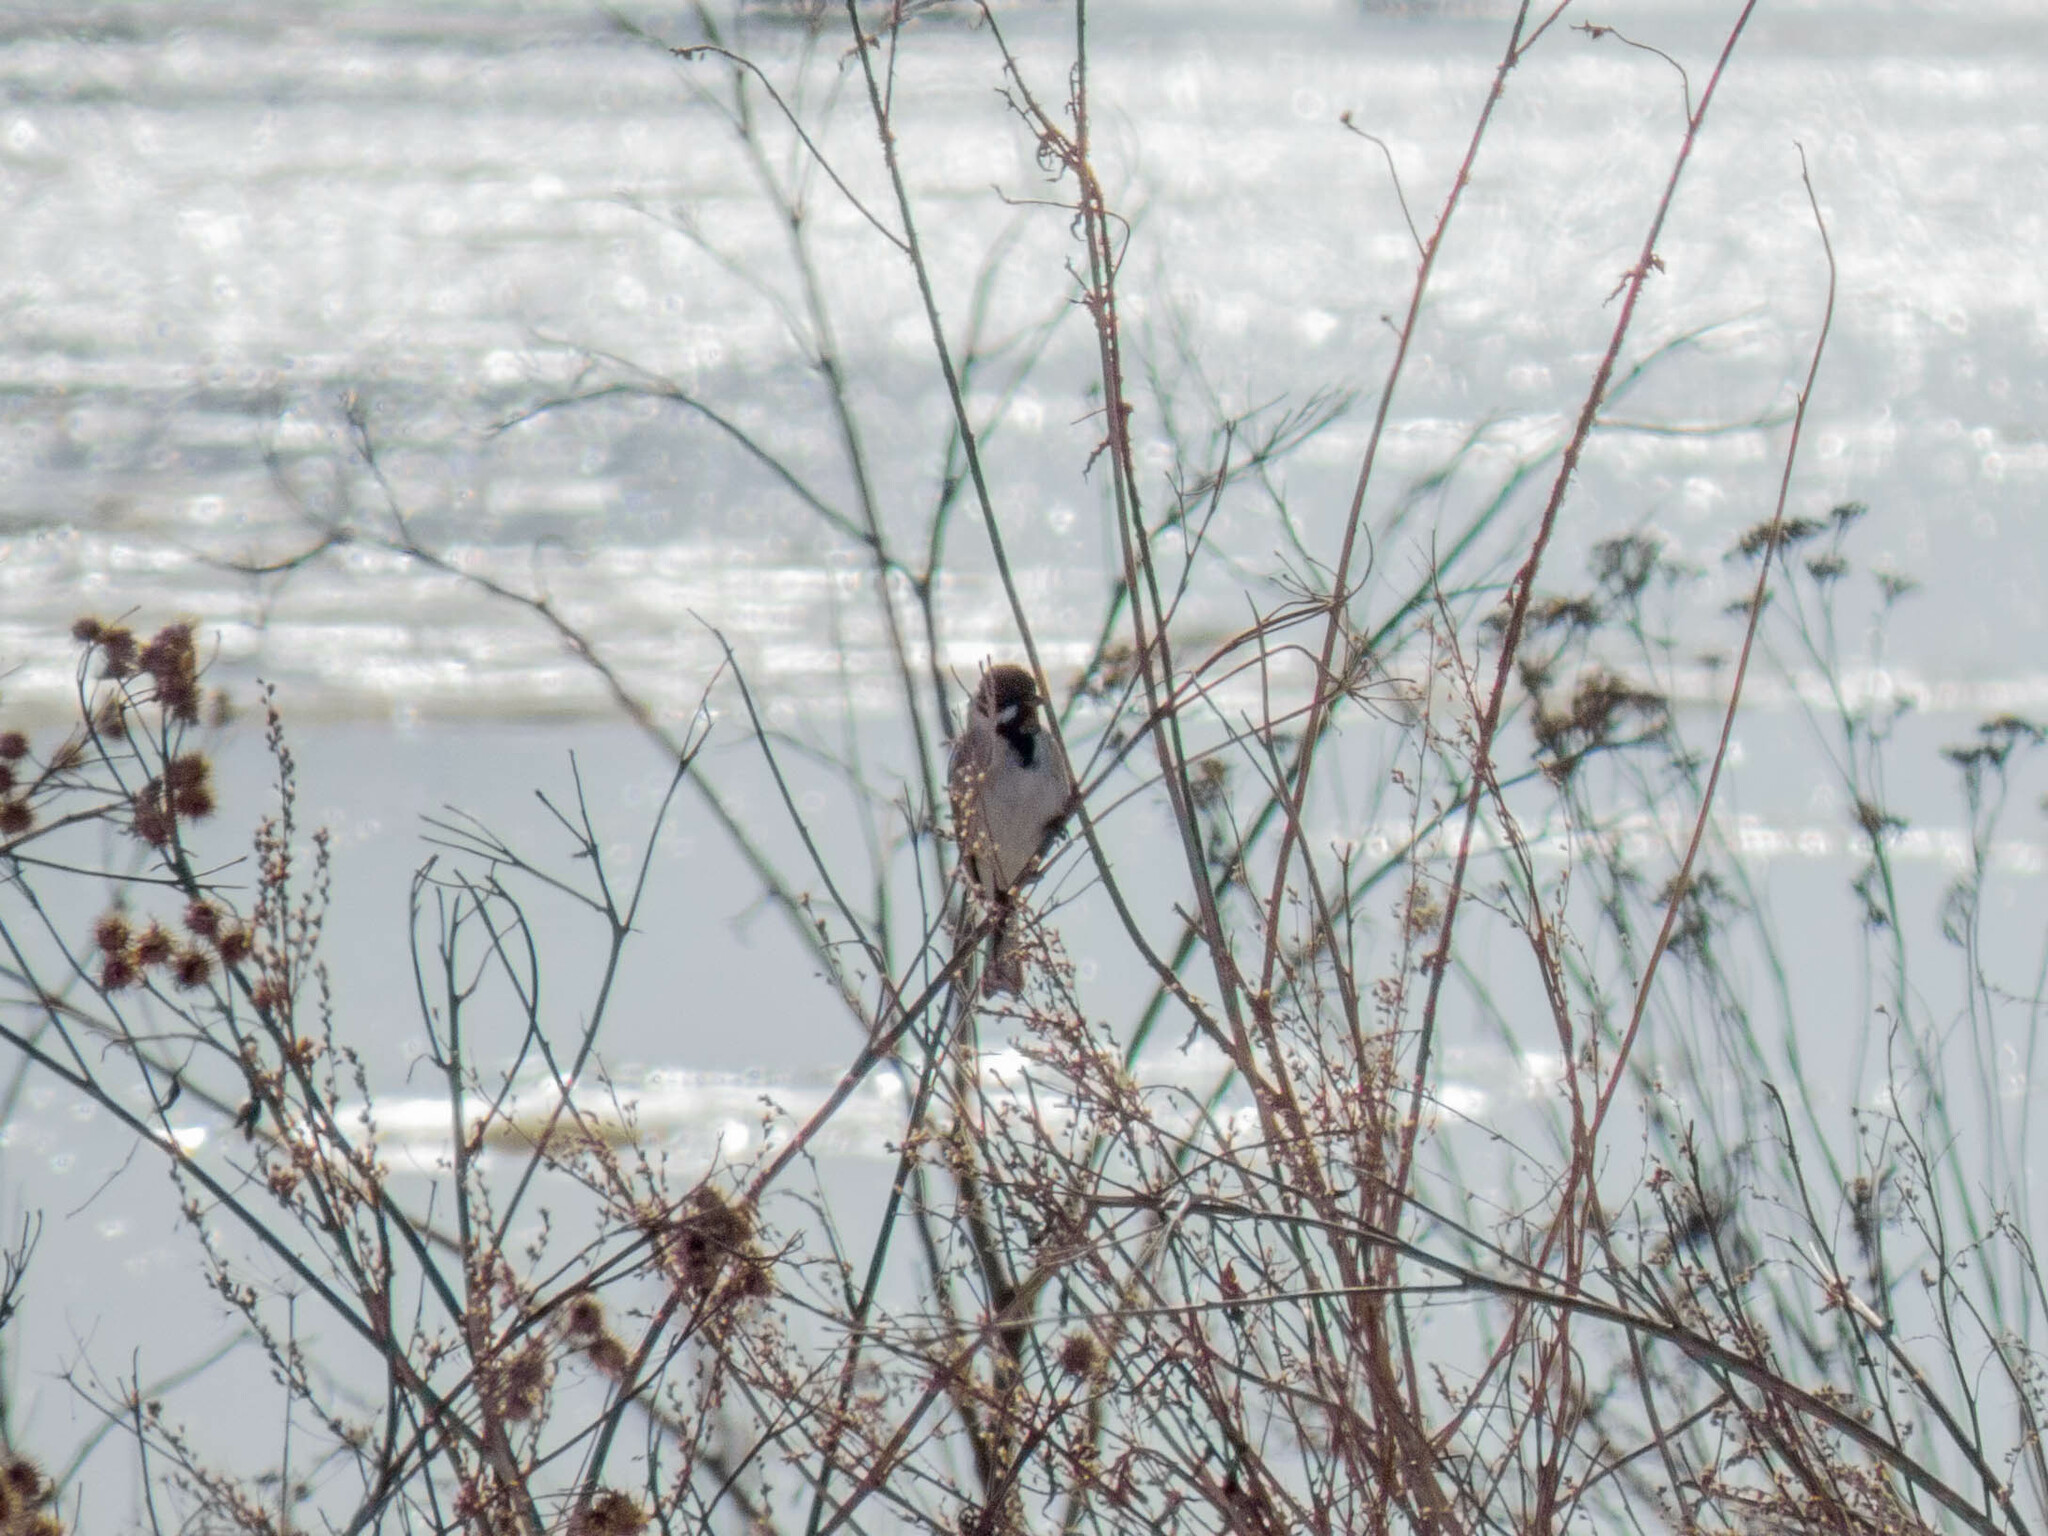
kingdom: Animalia
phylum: Chordata
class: Aves
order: Passeriformes
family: Emberizidae
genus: Emberiza
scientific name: Emberiza schoeniclus
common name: Reed bunting
